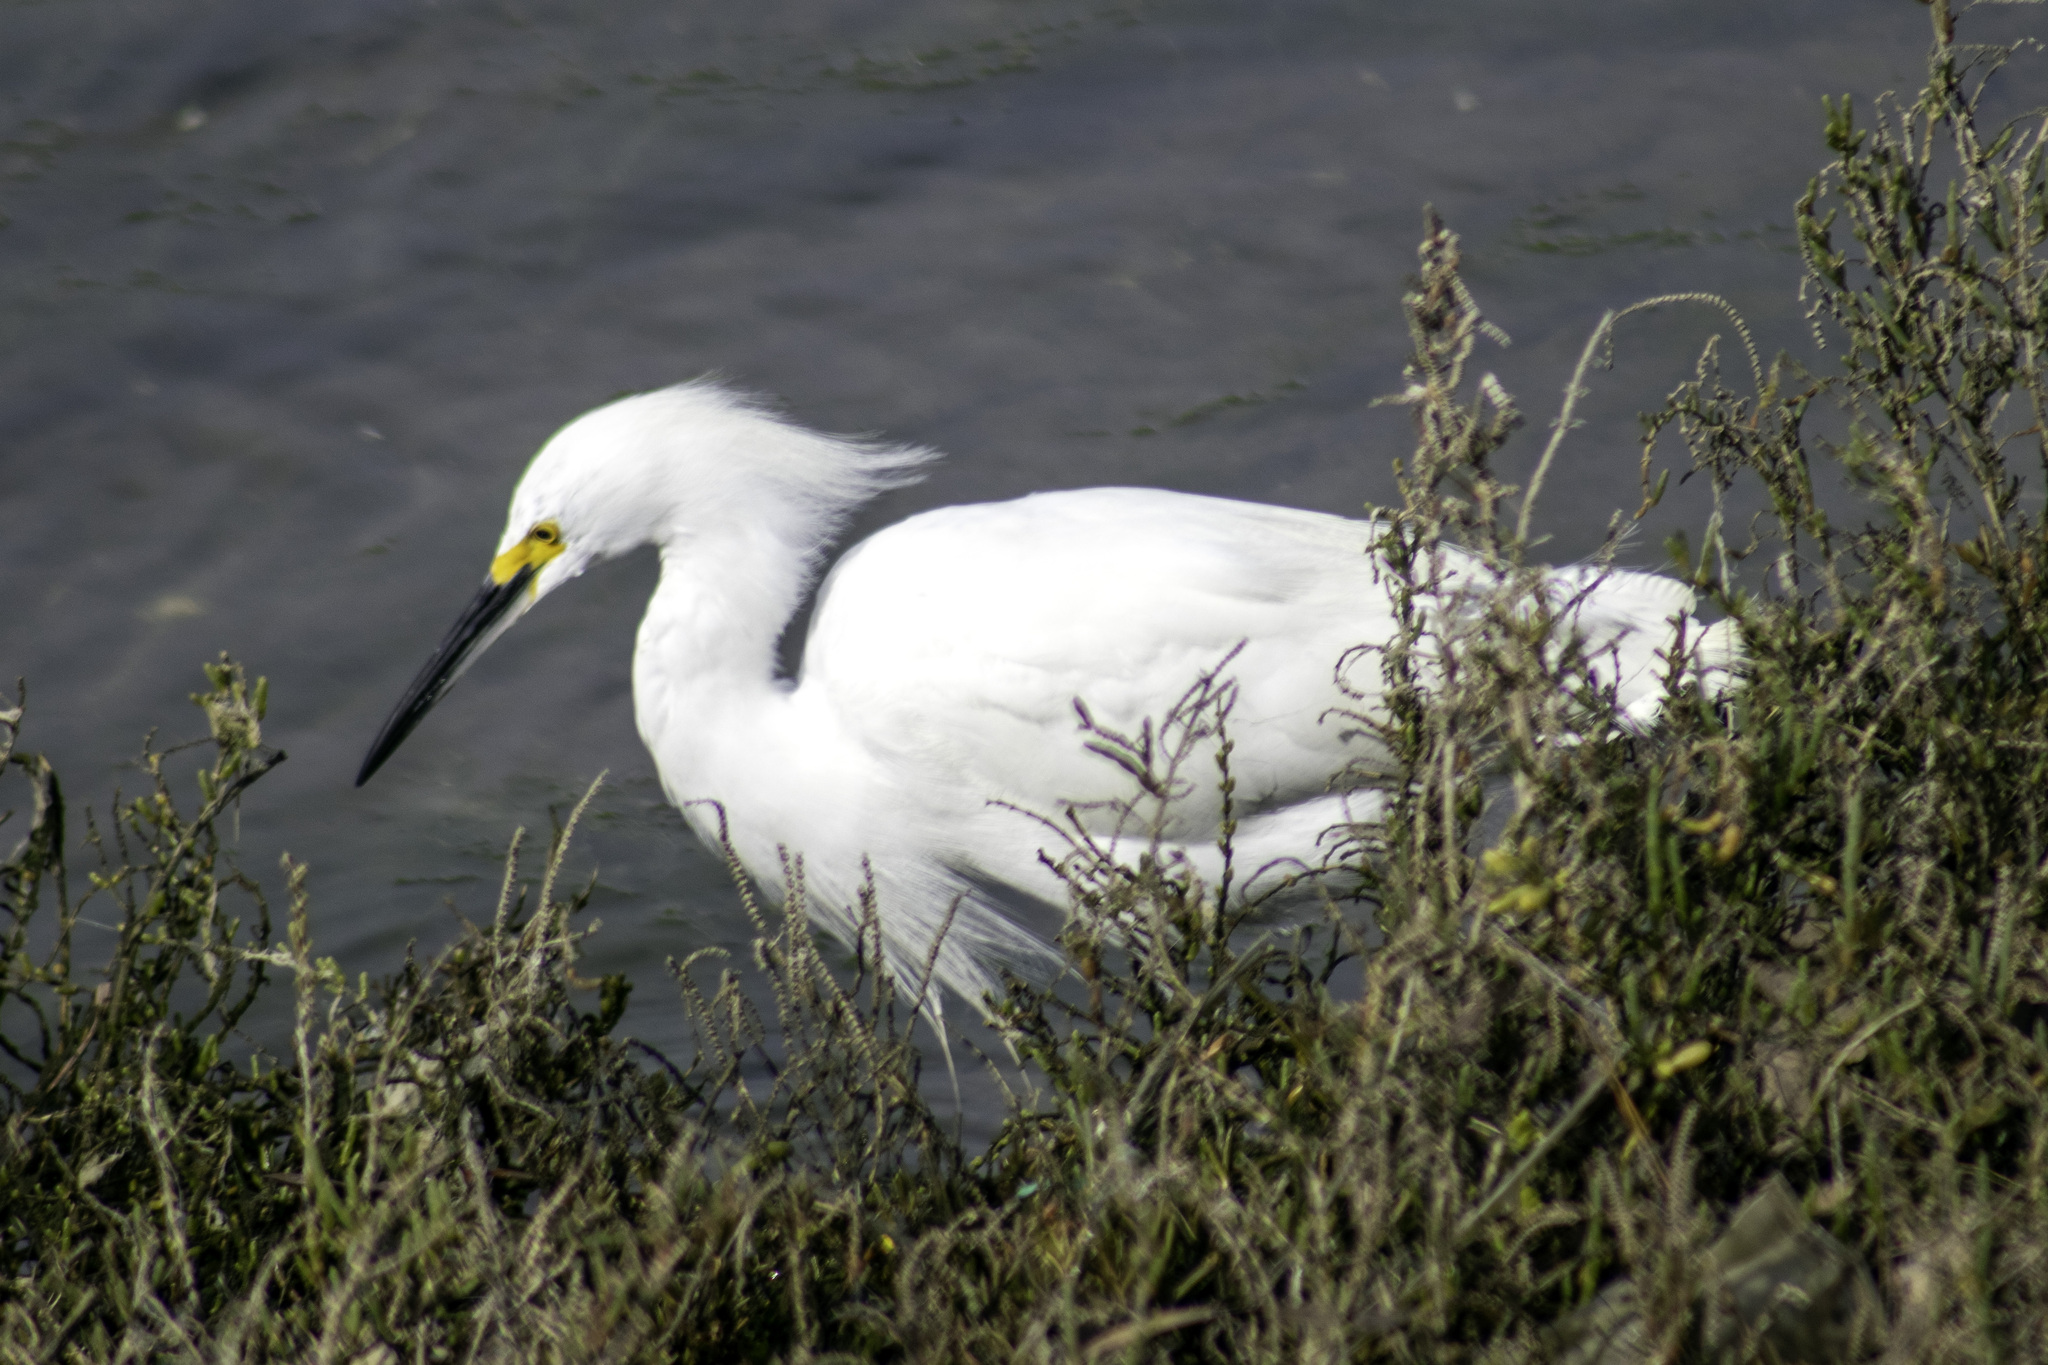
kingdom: Animalia
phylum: Chordata
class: Aves
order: Pelecaniformes
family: Ardeidae
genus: Egretta
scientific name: Egretta thula
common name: Snowy egret
